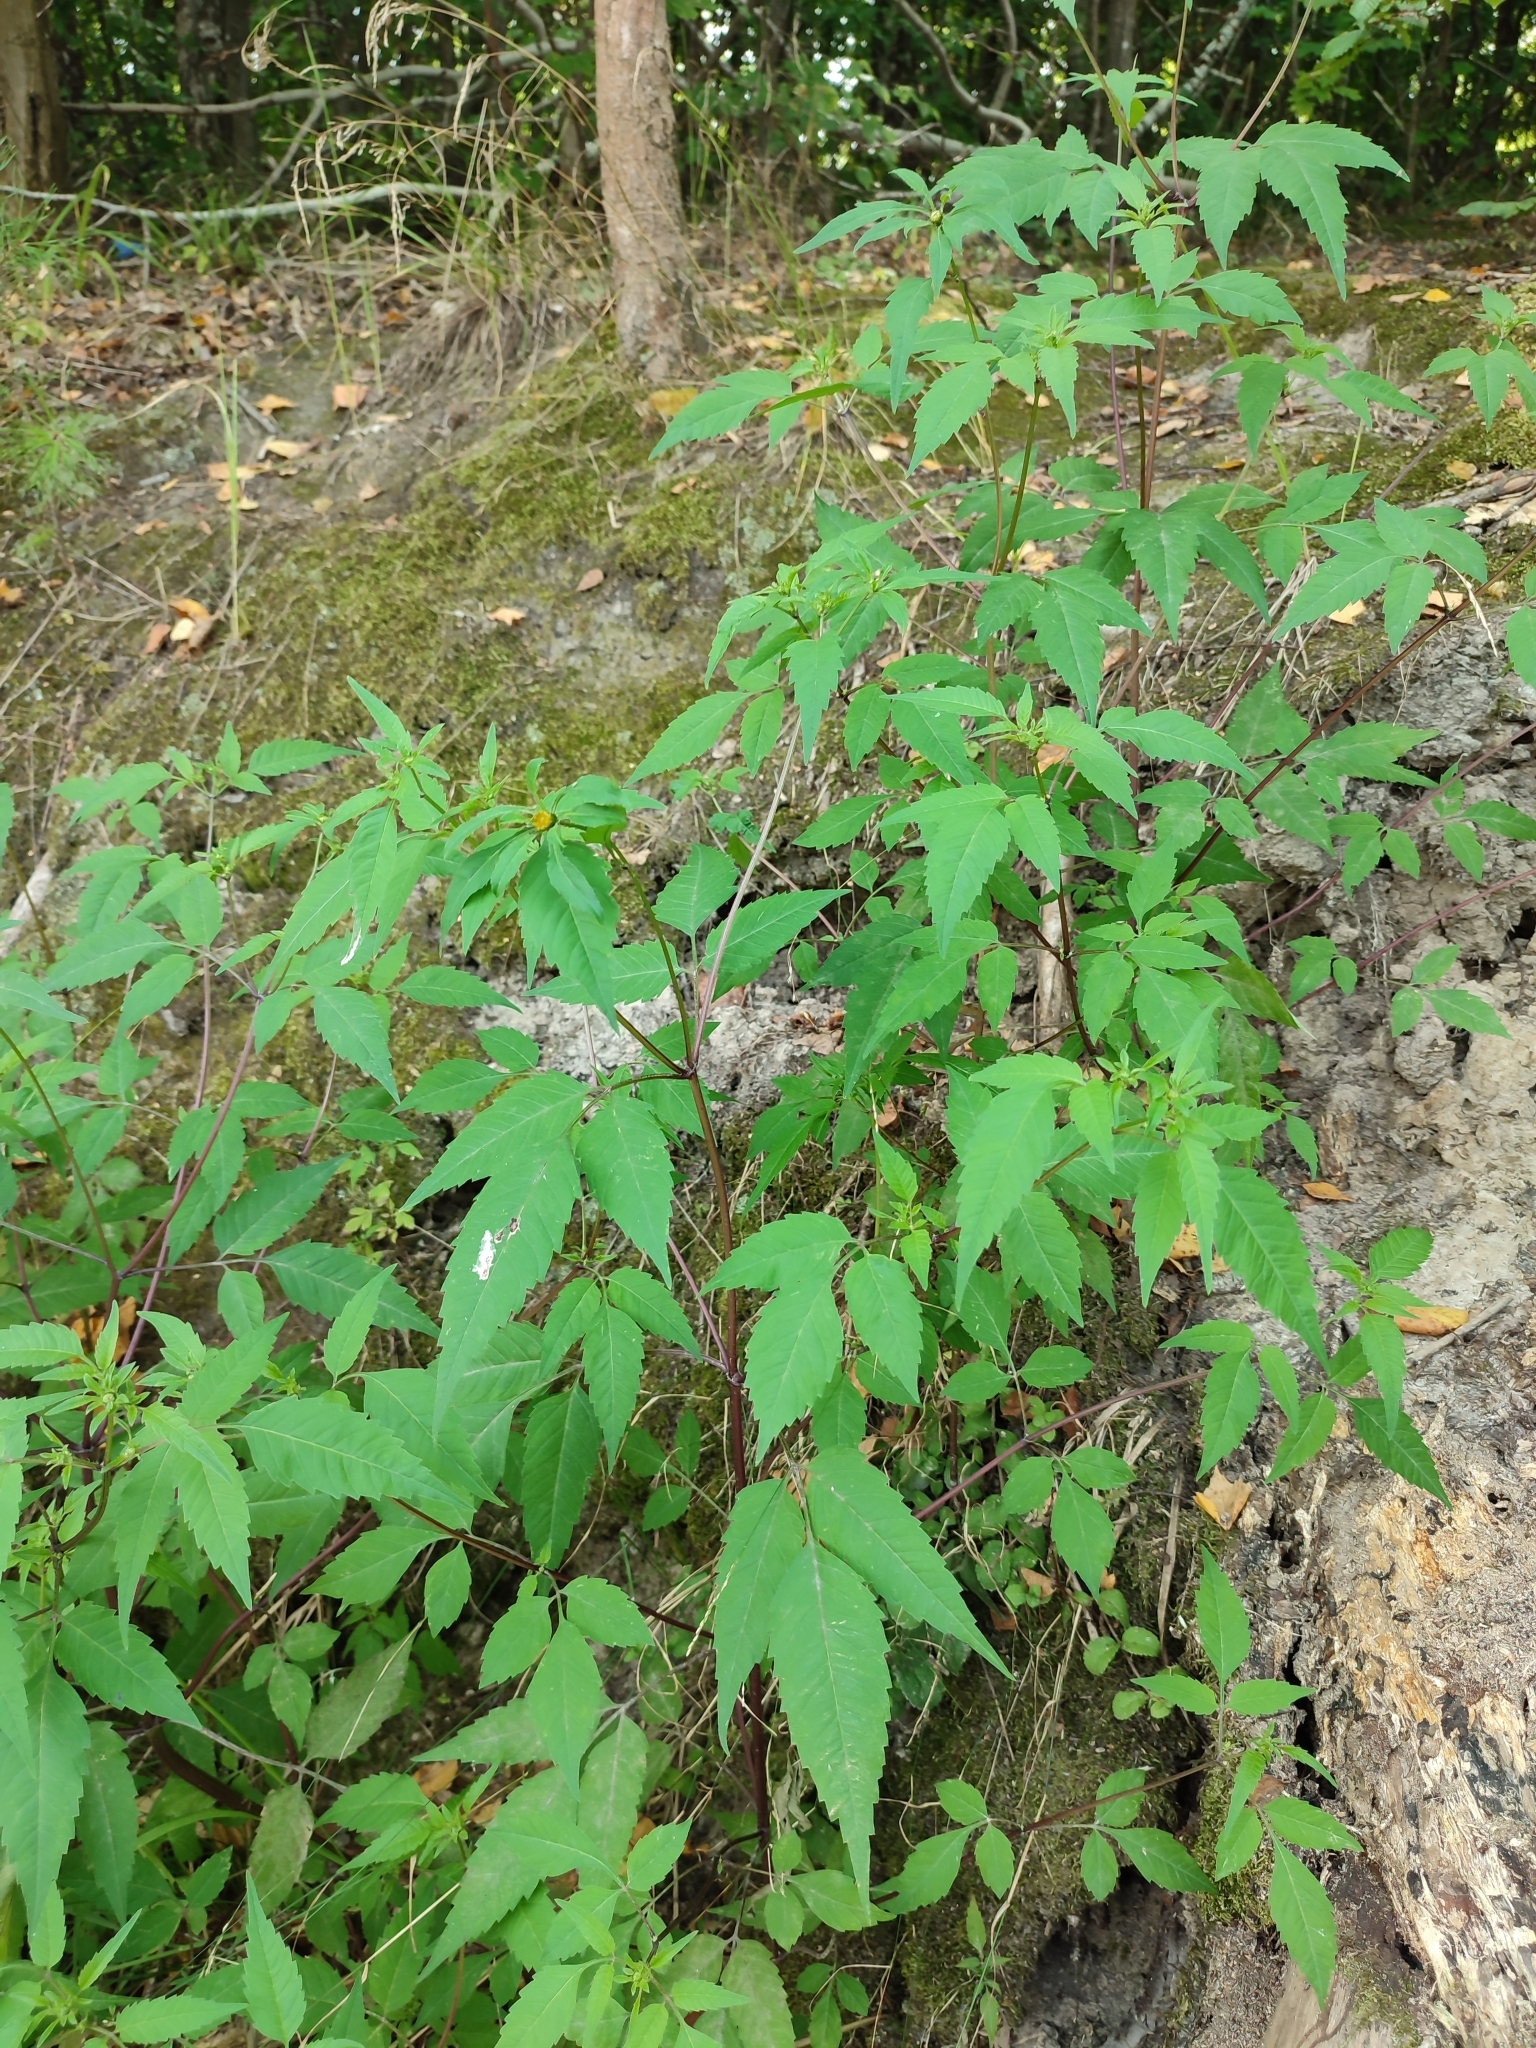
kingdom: Plantae
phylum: Tracheophyta
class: Magnoliopsida
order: Asterales
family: Asteraceae
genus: Bidens
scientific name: Bidens frondosa
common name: Beggarticks
